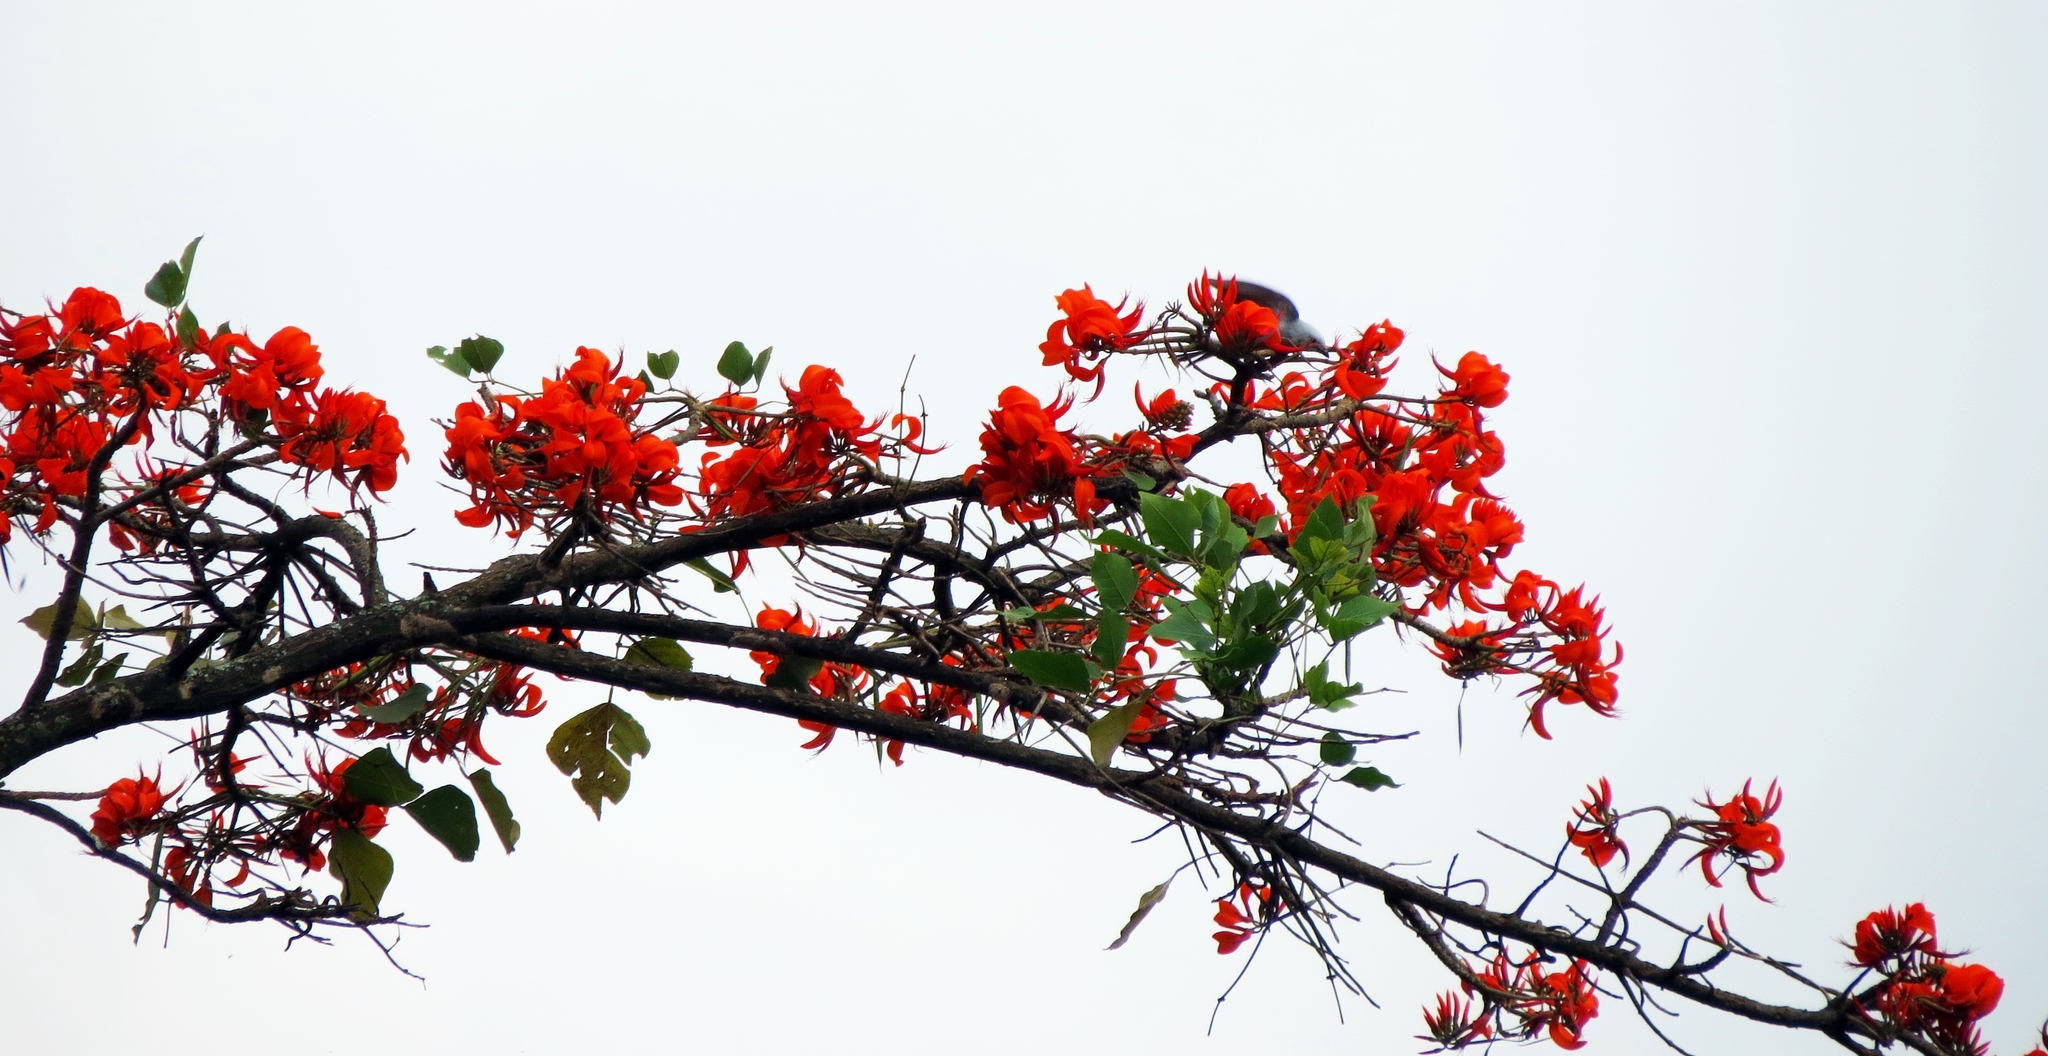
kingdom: Animalia
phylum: Chordata
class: Aves
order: Passeriformes
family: Thraupidae
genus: Thraupis
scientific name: Thraupis episcopus
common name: Blue-grey tanager
